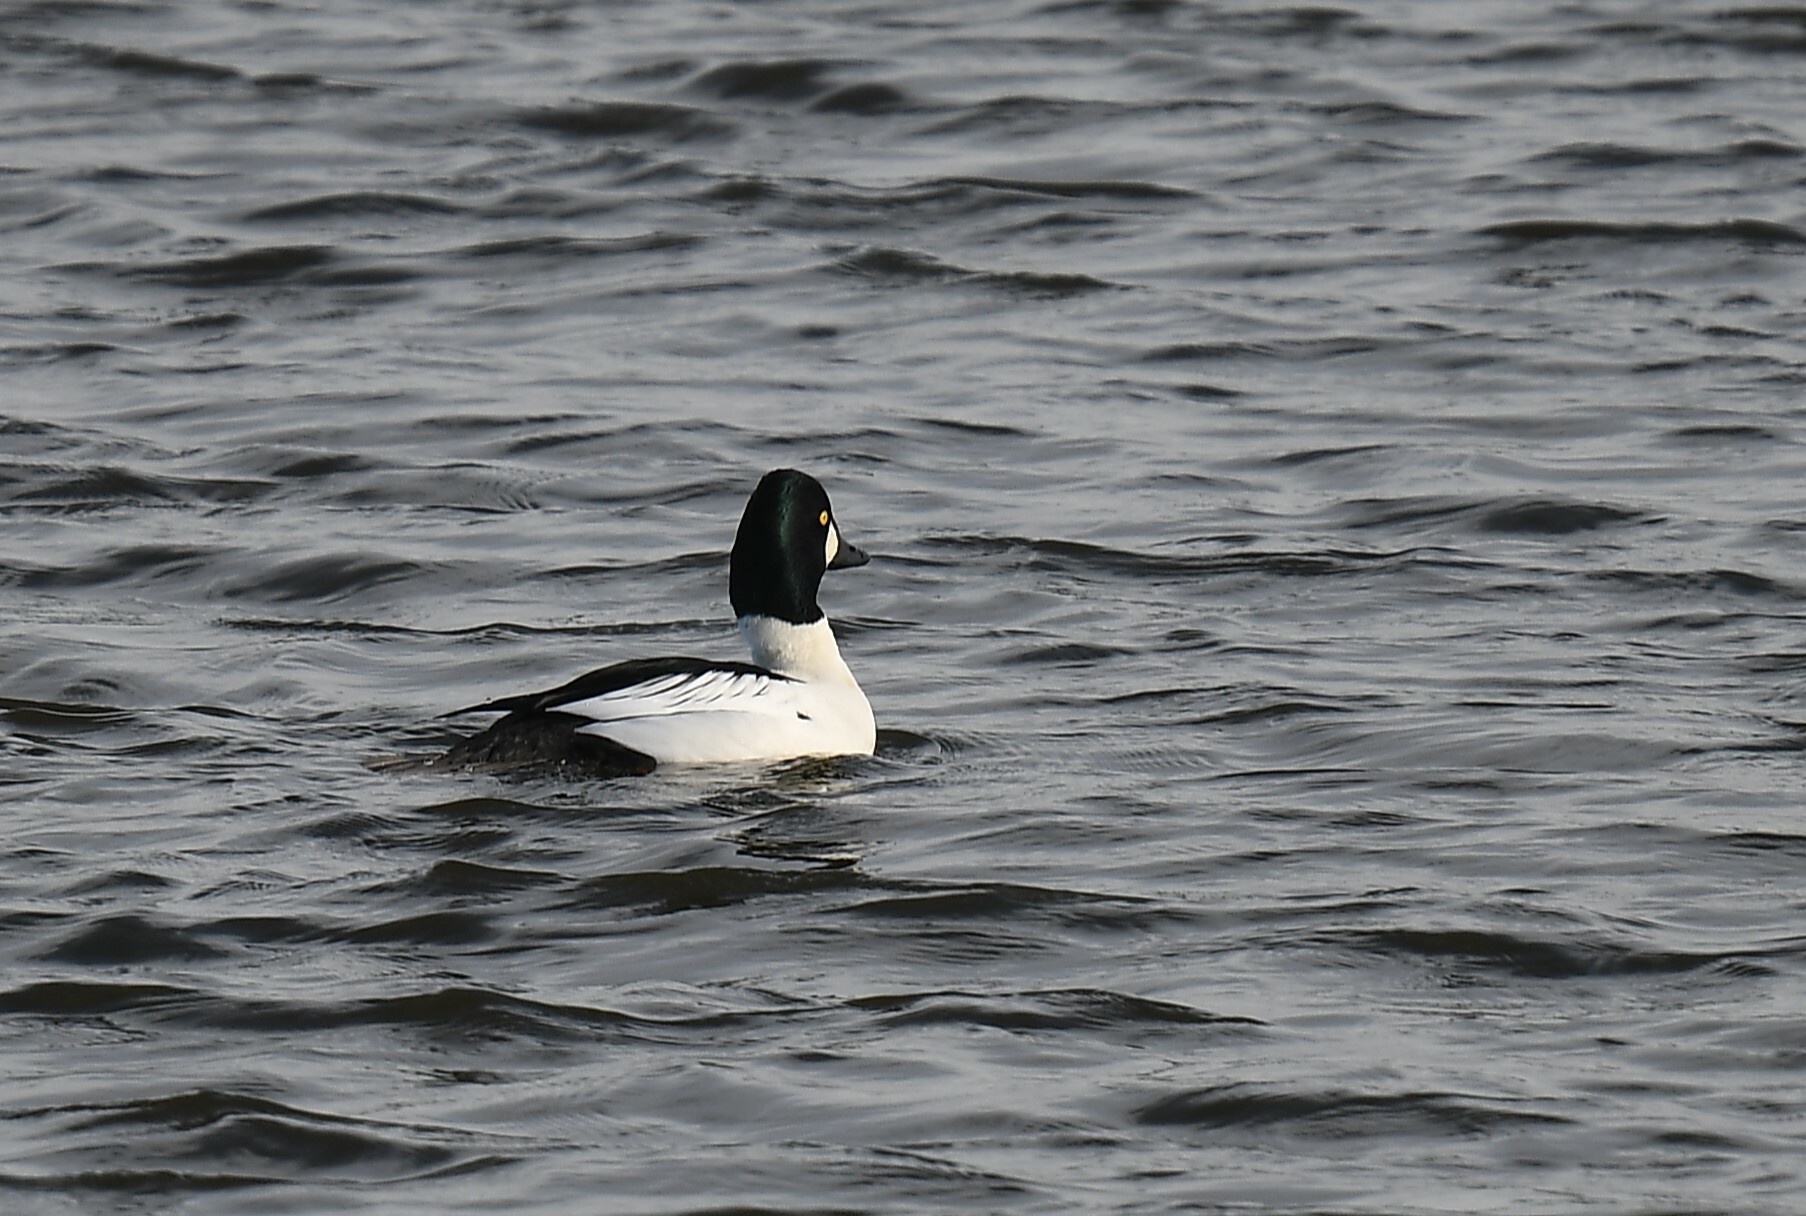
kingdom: Animalia
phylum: Chordata
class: Aves
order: Anseriformes
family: Anatidae
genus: Bucephala
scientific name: Bucephala clangula
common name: Common goldeneye
